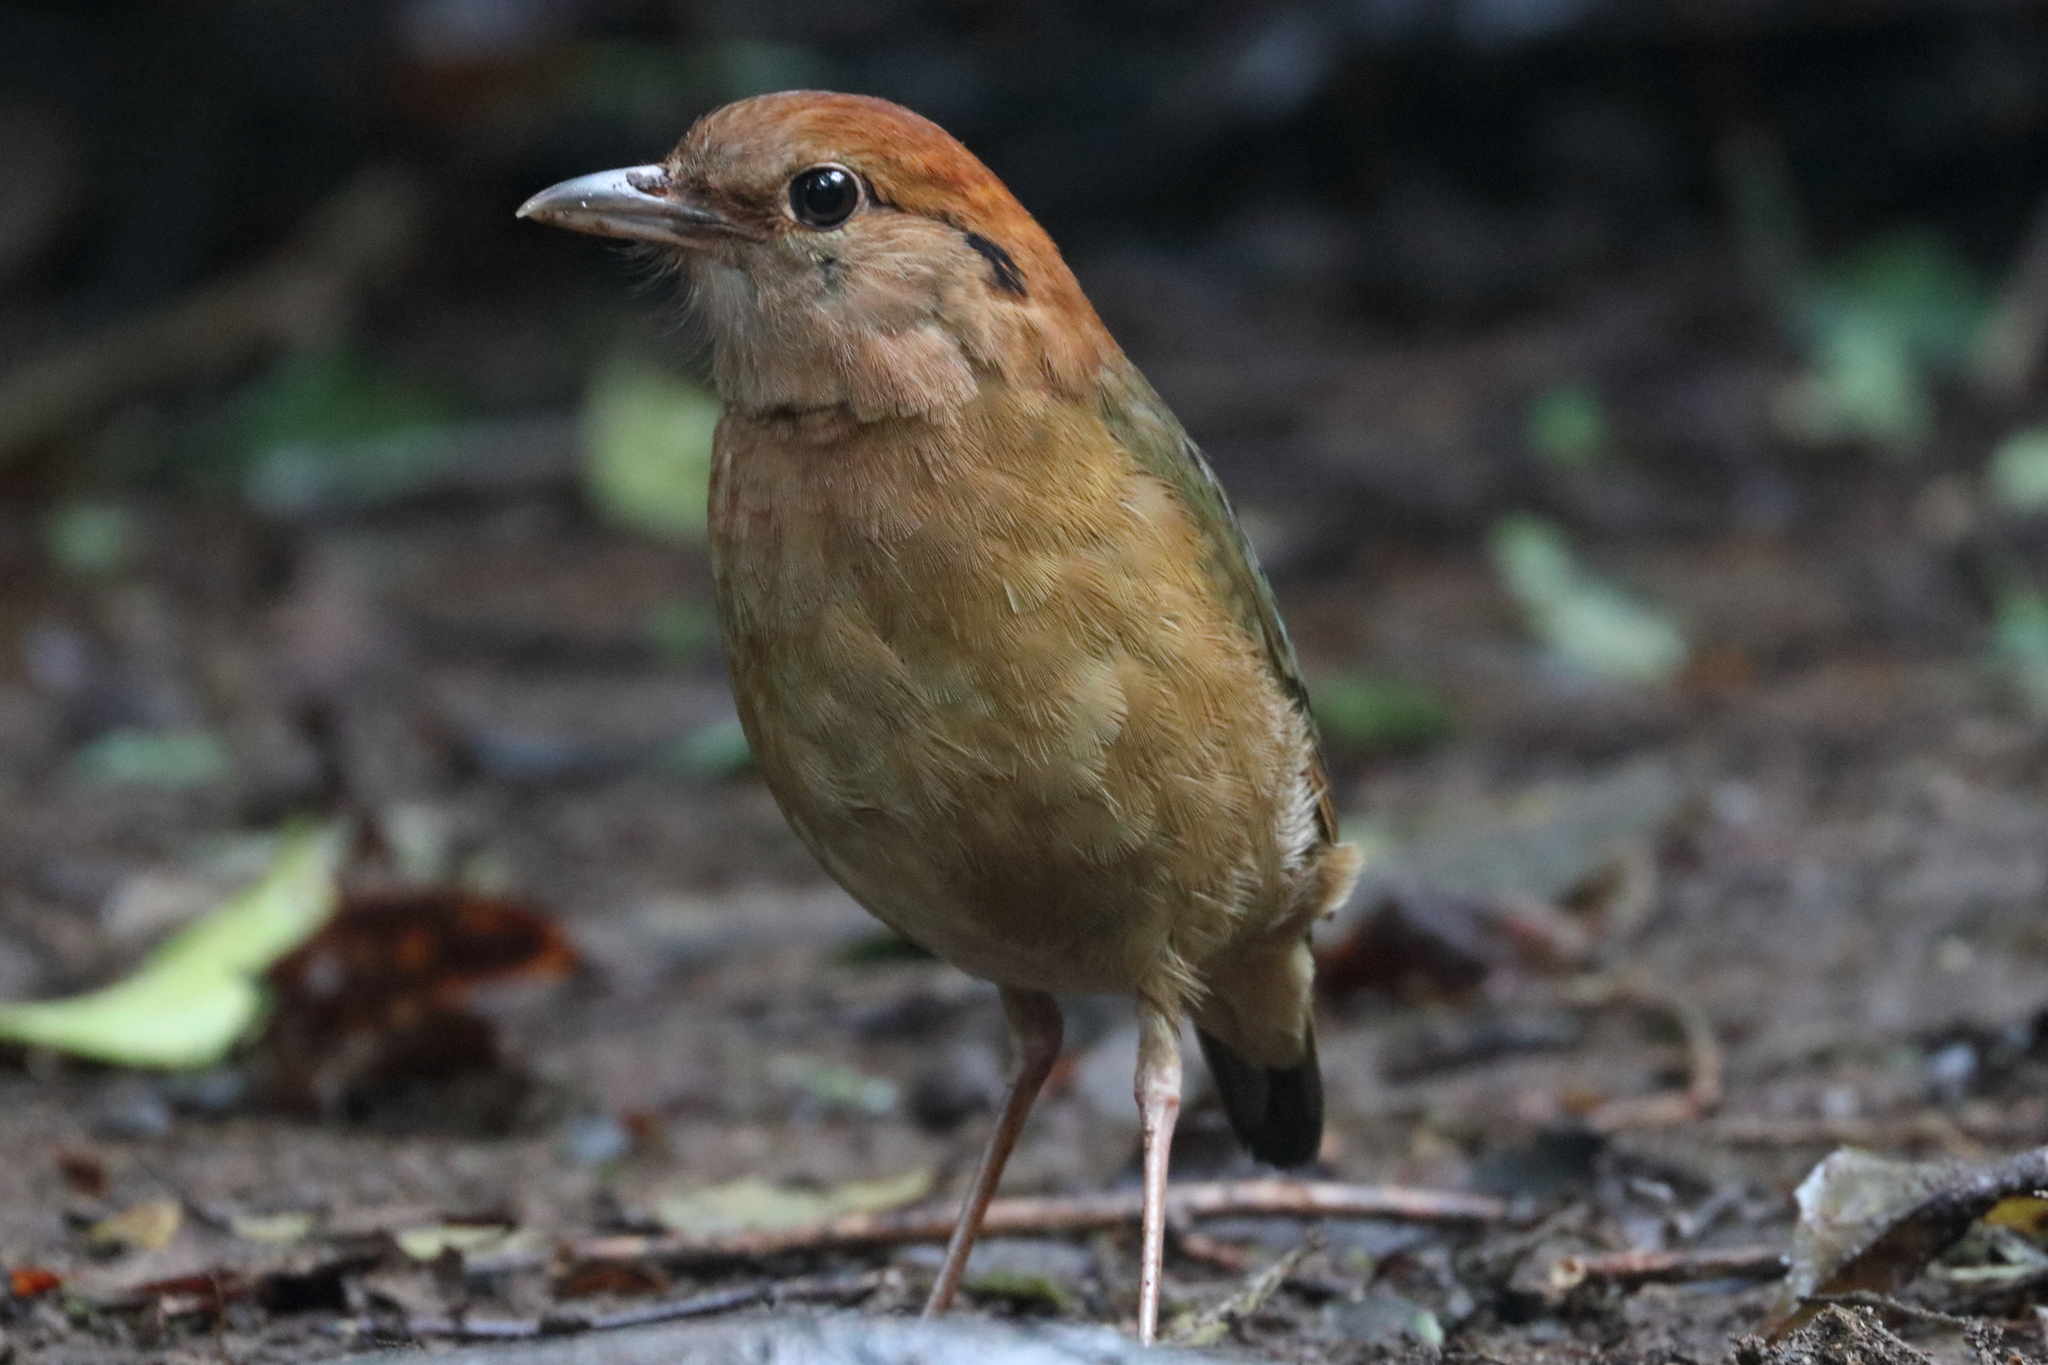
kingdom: Animalia
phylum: Chordata
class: Aves
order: Passeriformes
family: Pittidae
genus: Pitta
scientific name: Pitta oatesi
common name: Rusty-naped pitta
